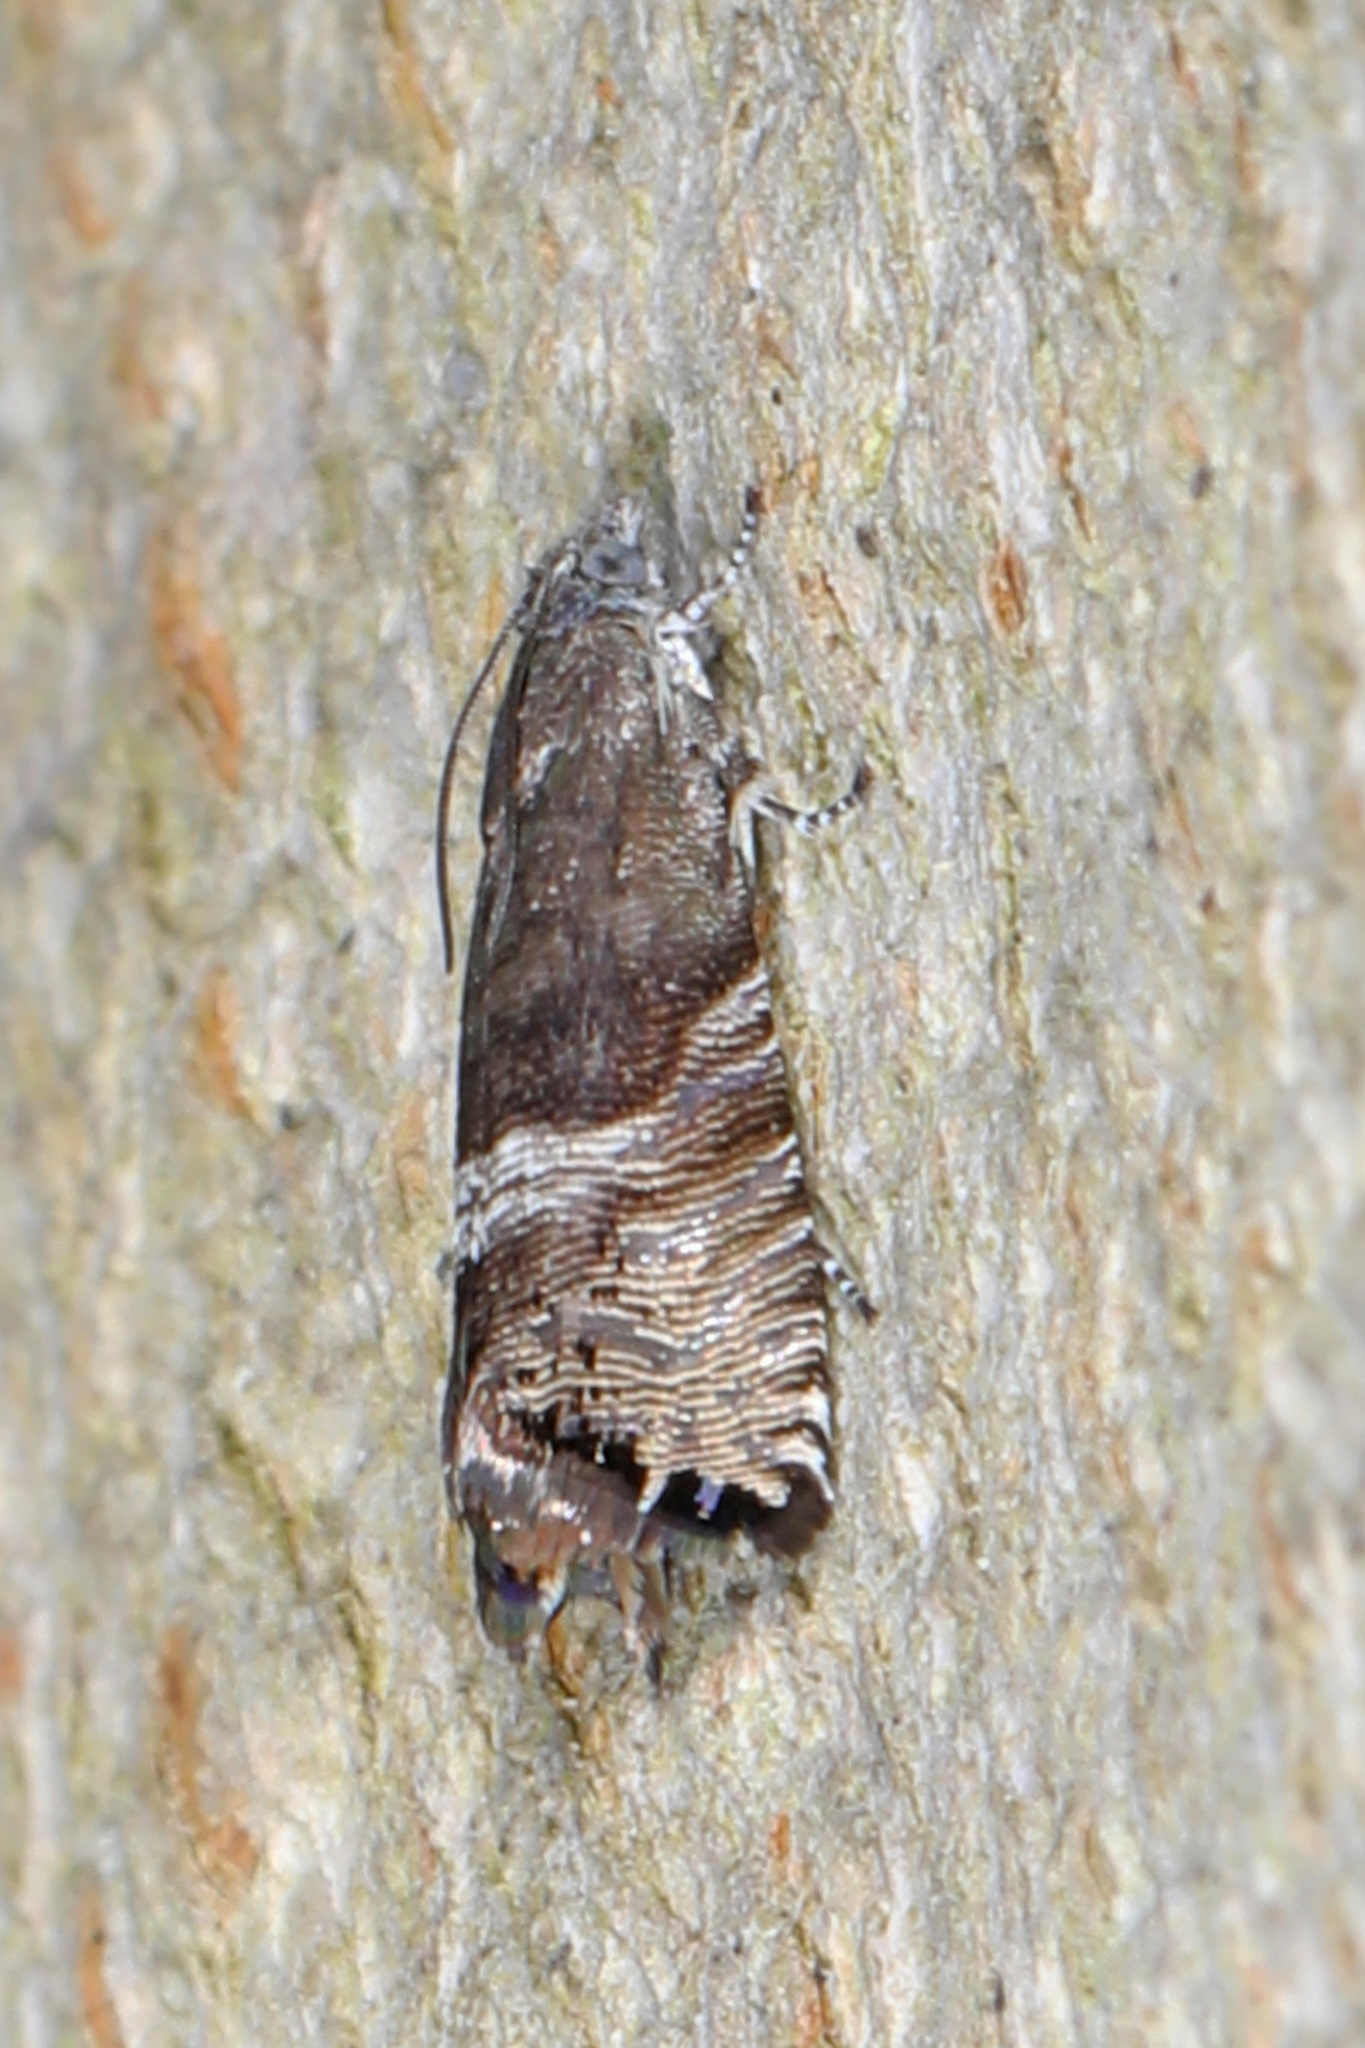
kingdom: Animalia
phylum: Arthropoda
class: Insecta
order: Lepidoptera
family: Tortricidae
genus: Sereda
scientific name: Sereda tautana
